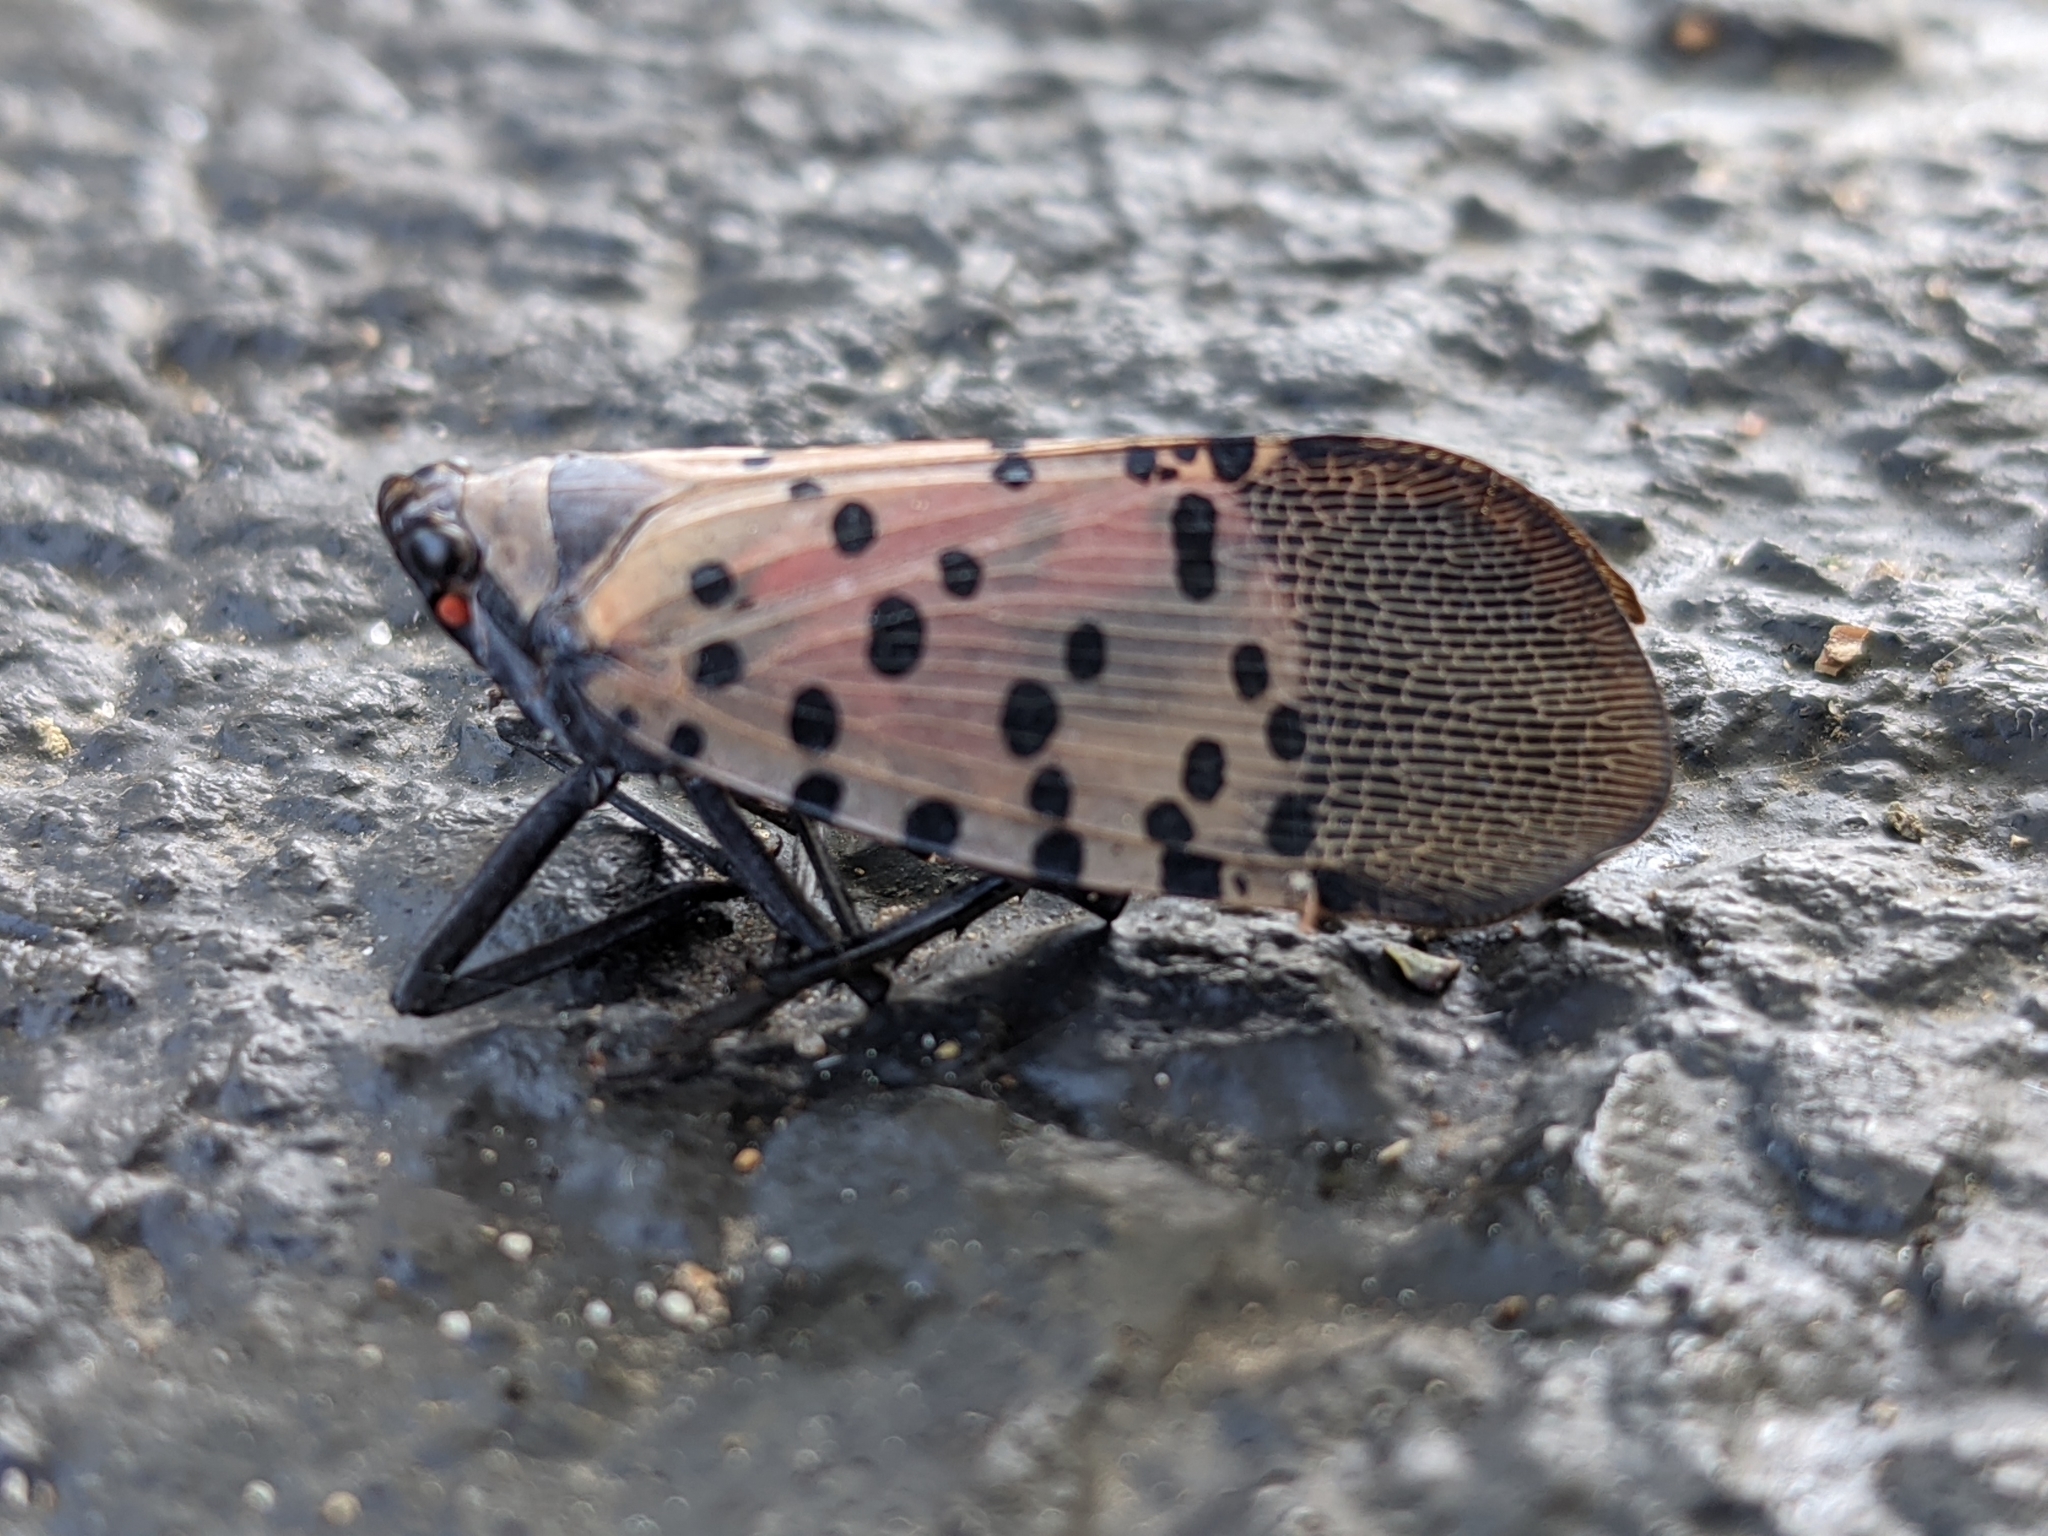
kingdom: Animalia
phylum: Arthropoda
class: Insecta
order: Hemiptera
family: Fulgoridae
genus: Lycorma
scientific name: Lycorma delicatula
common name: Spotted lanternfly
